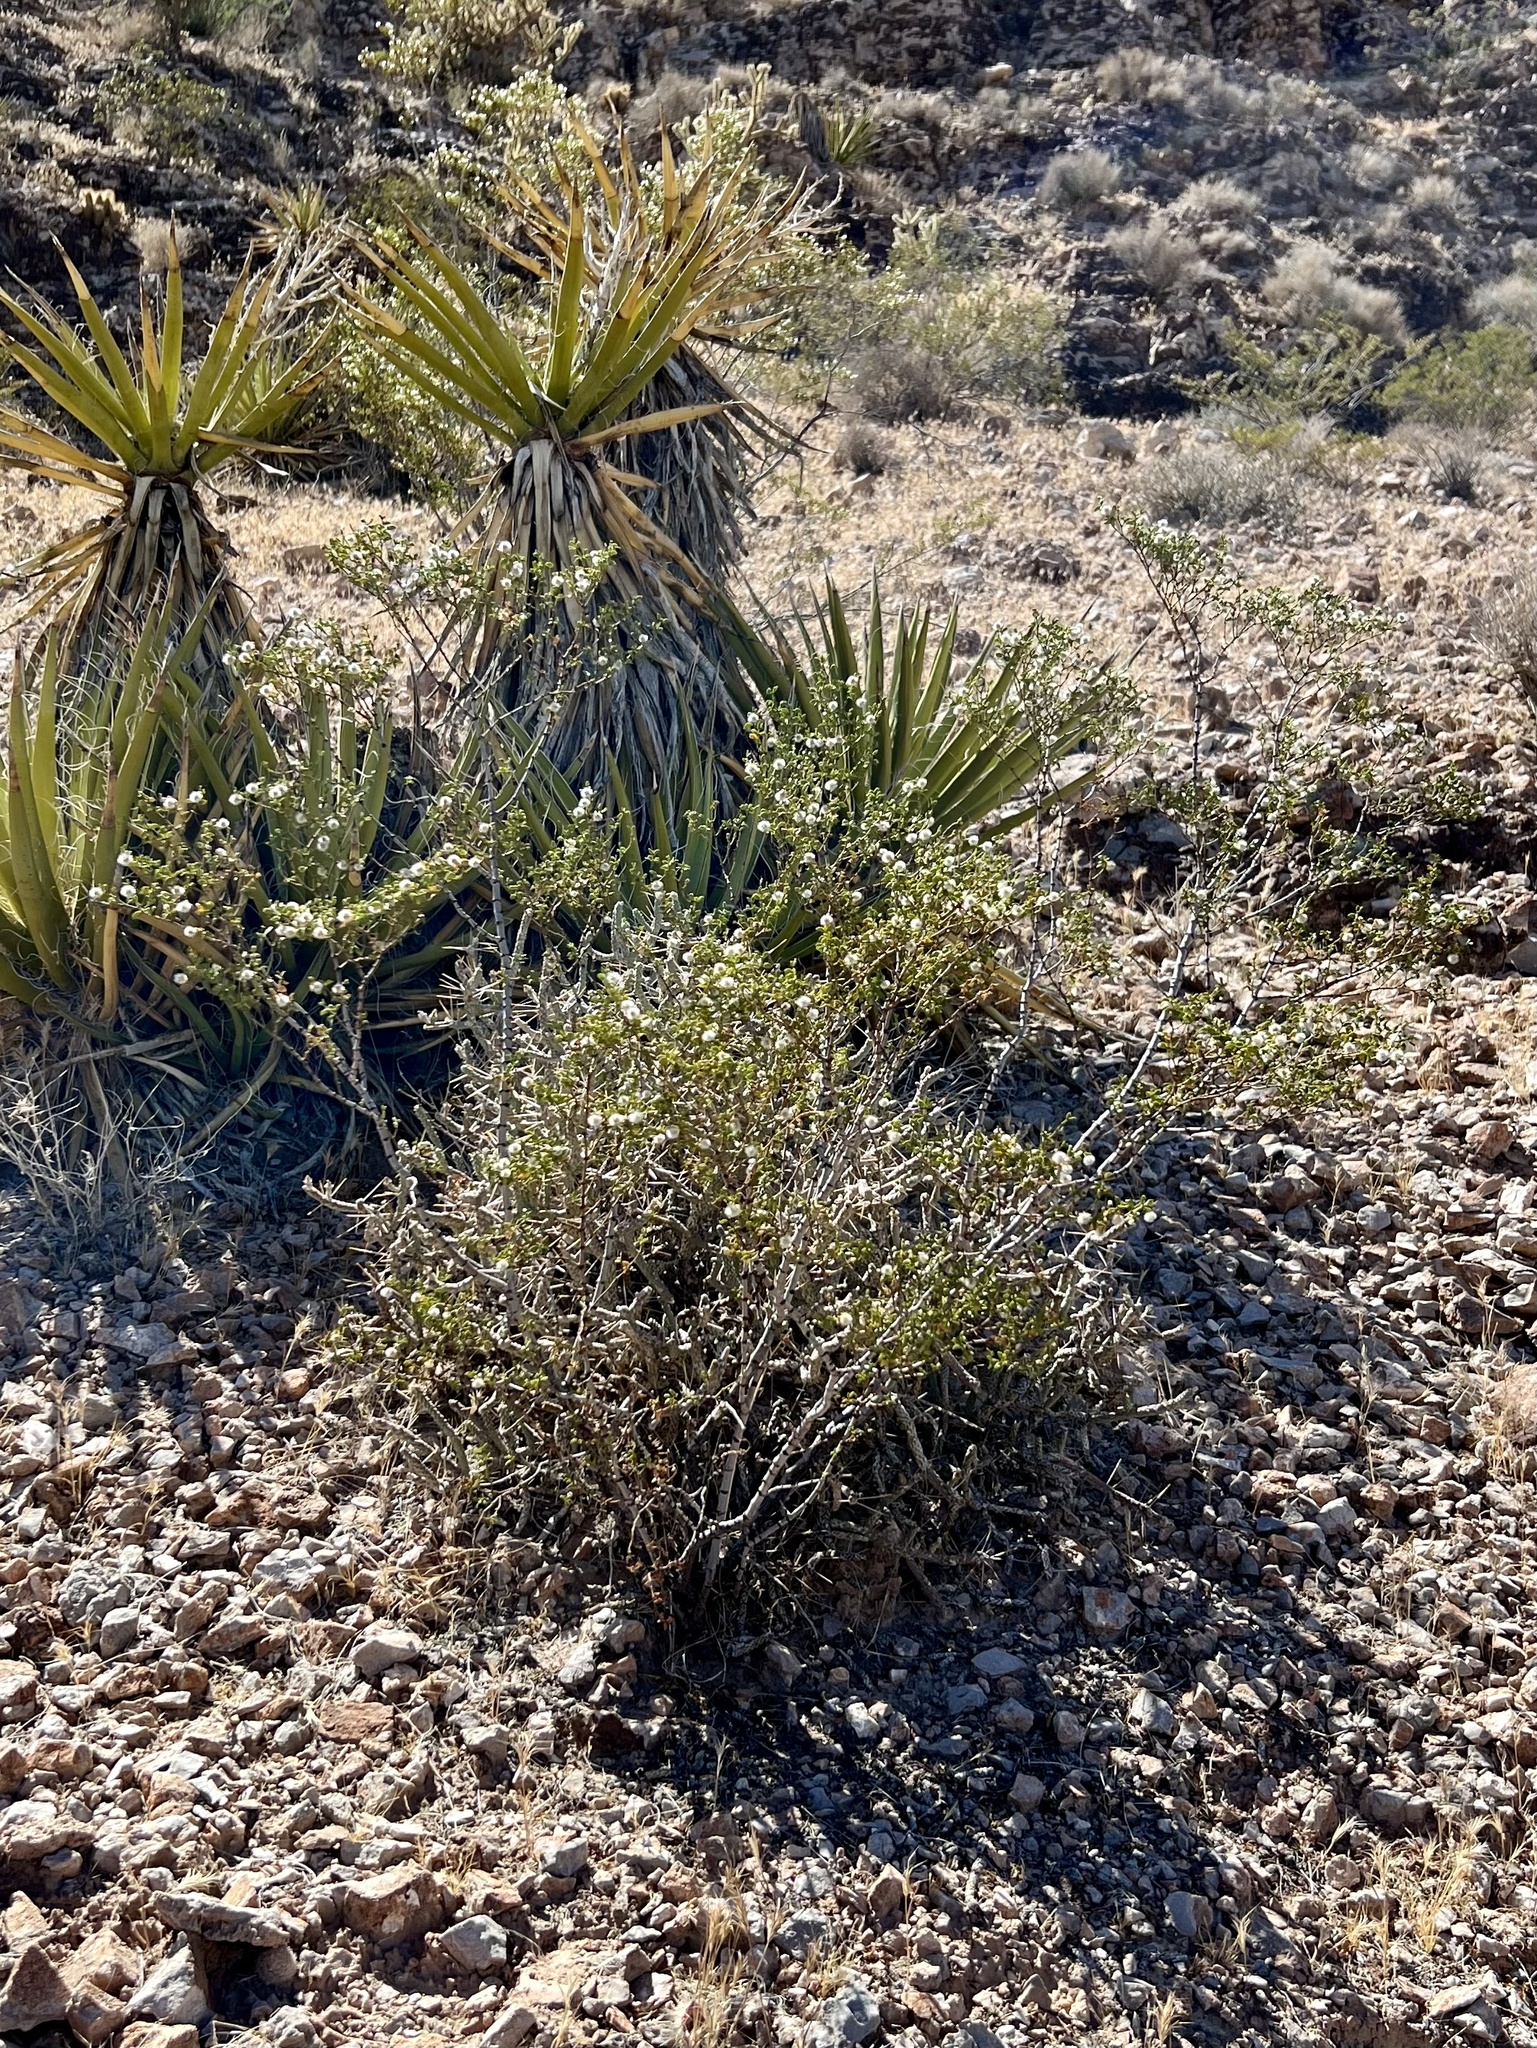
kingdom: Plantae
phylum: Tracheophyta
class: Magnoliopsida
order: Zygophyllales
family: Zygophyllaceae
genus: Larrea
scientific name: Larrea tridentata
